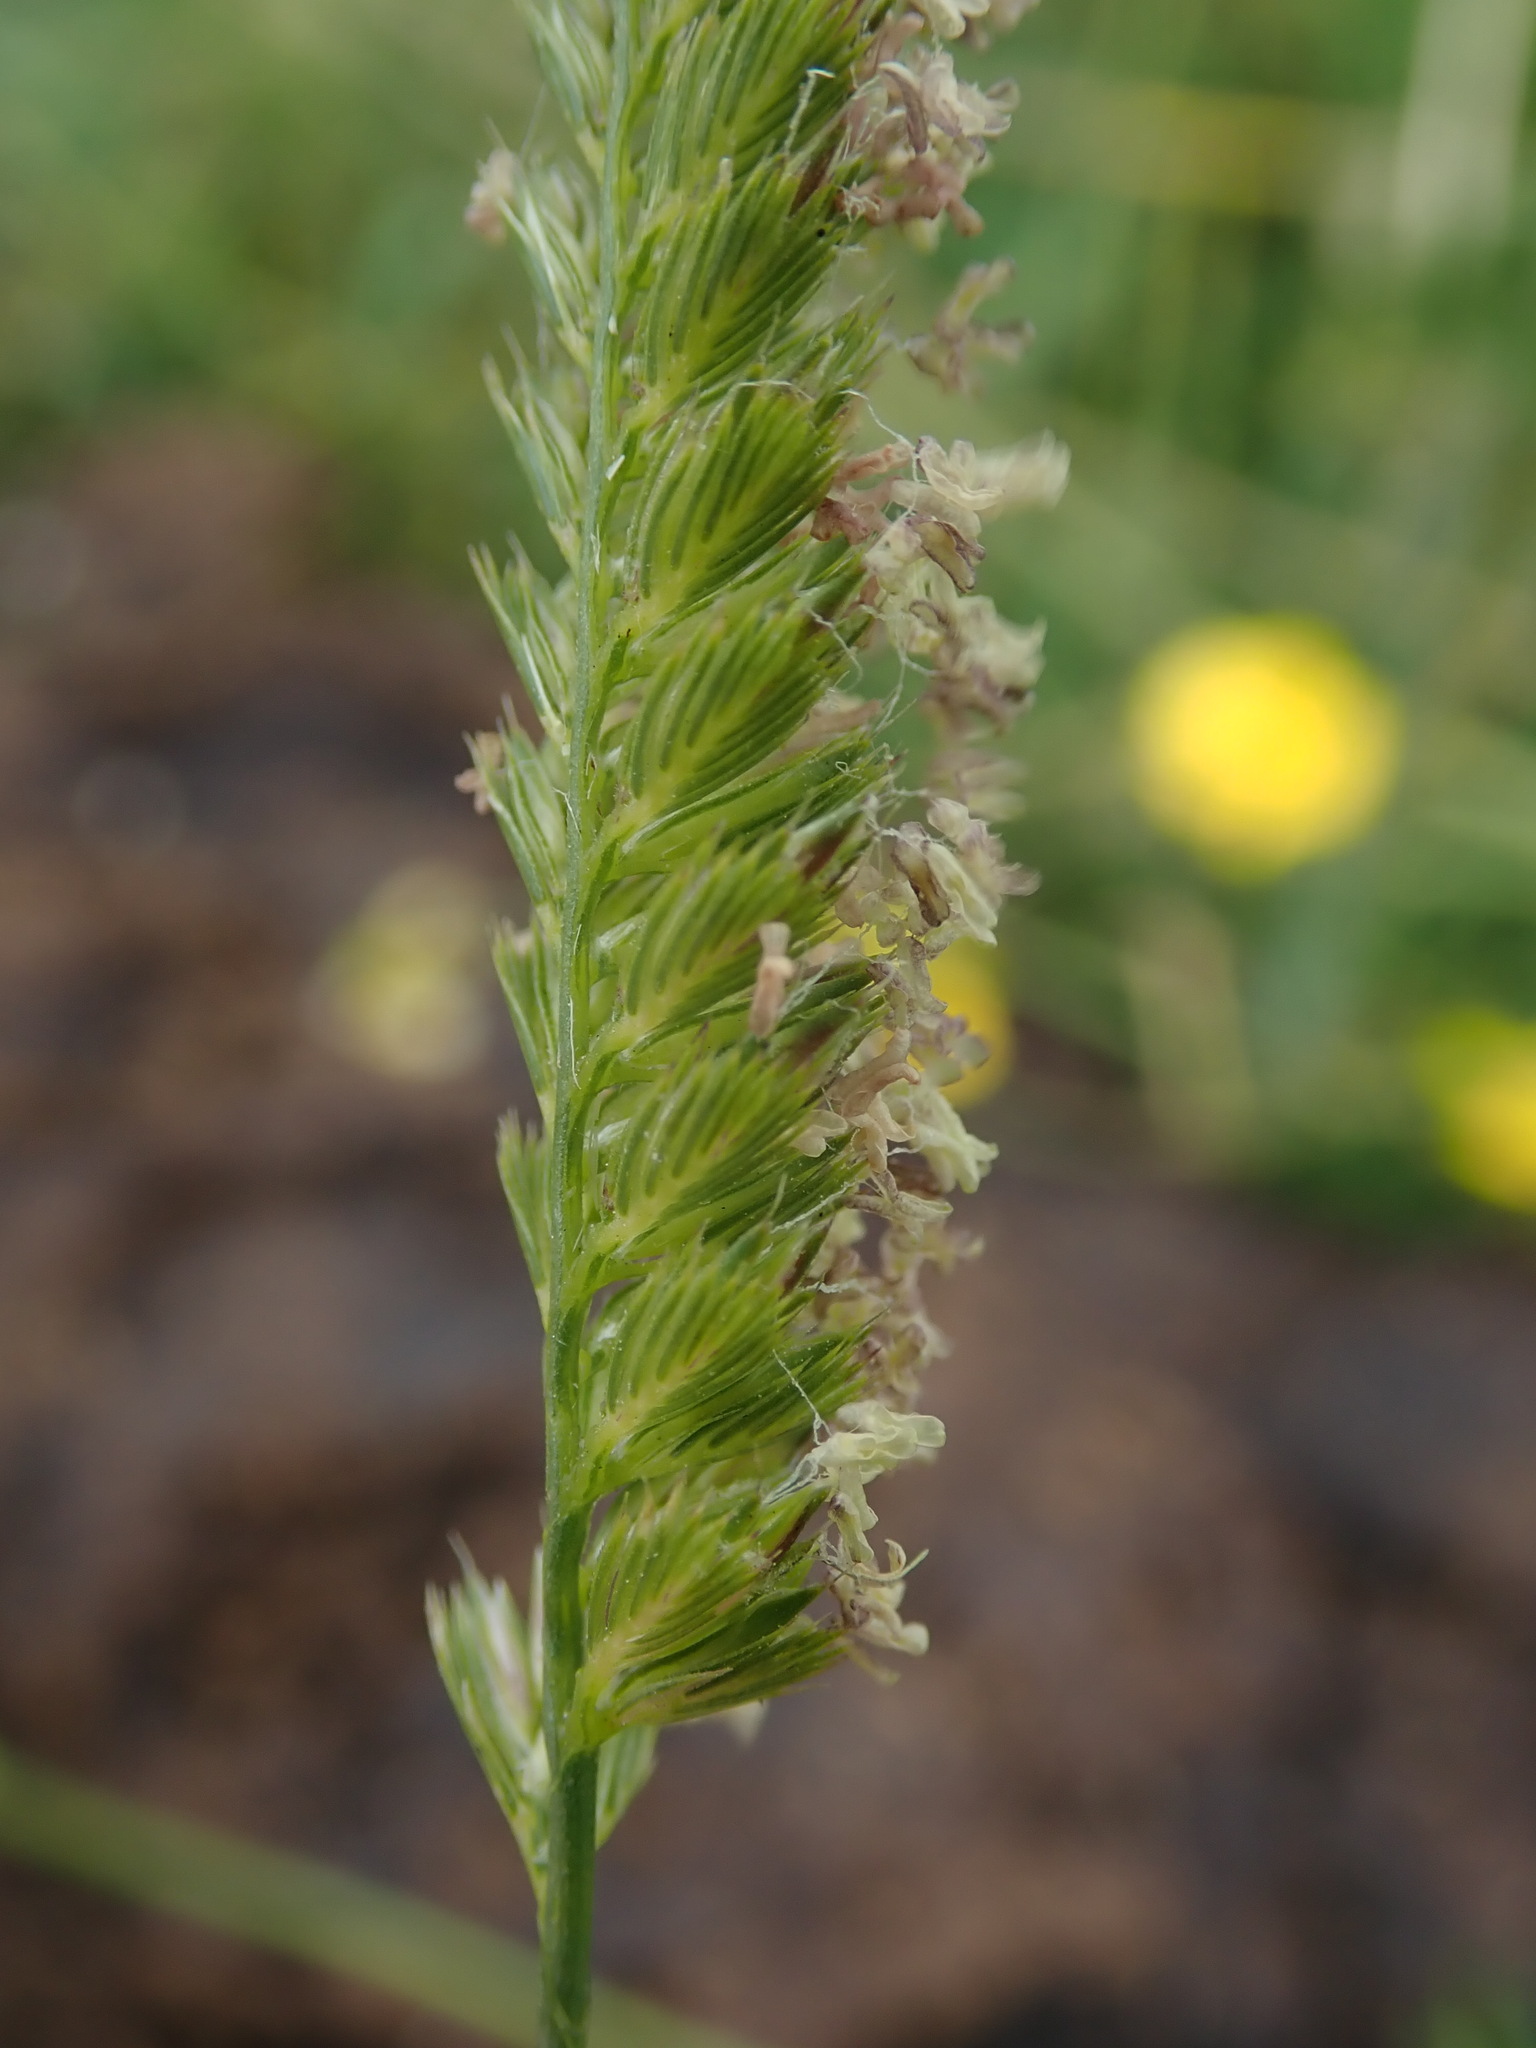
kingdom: Plantae
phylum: Tracheophyta
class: Liliopsida
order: Poales
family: Poaceae
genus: Cynosurus
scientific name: Cynosurus cristatus
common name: Crested dog's-tail
